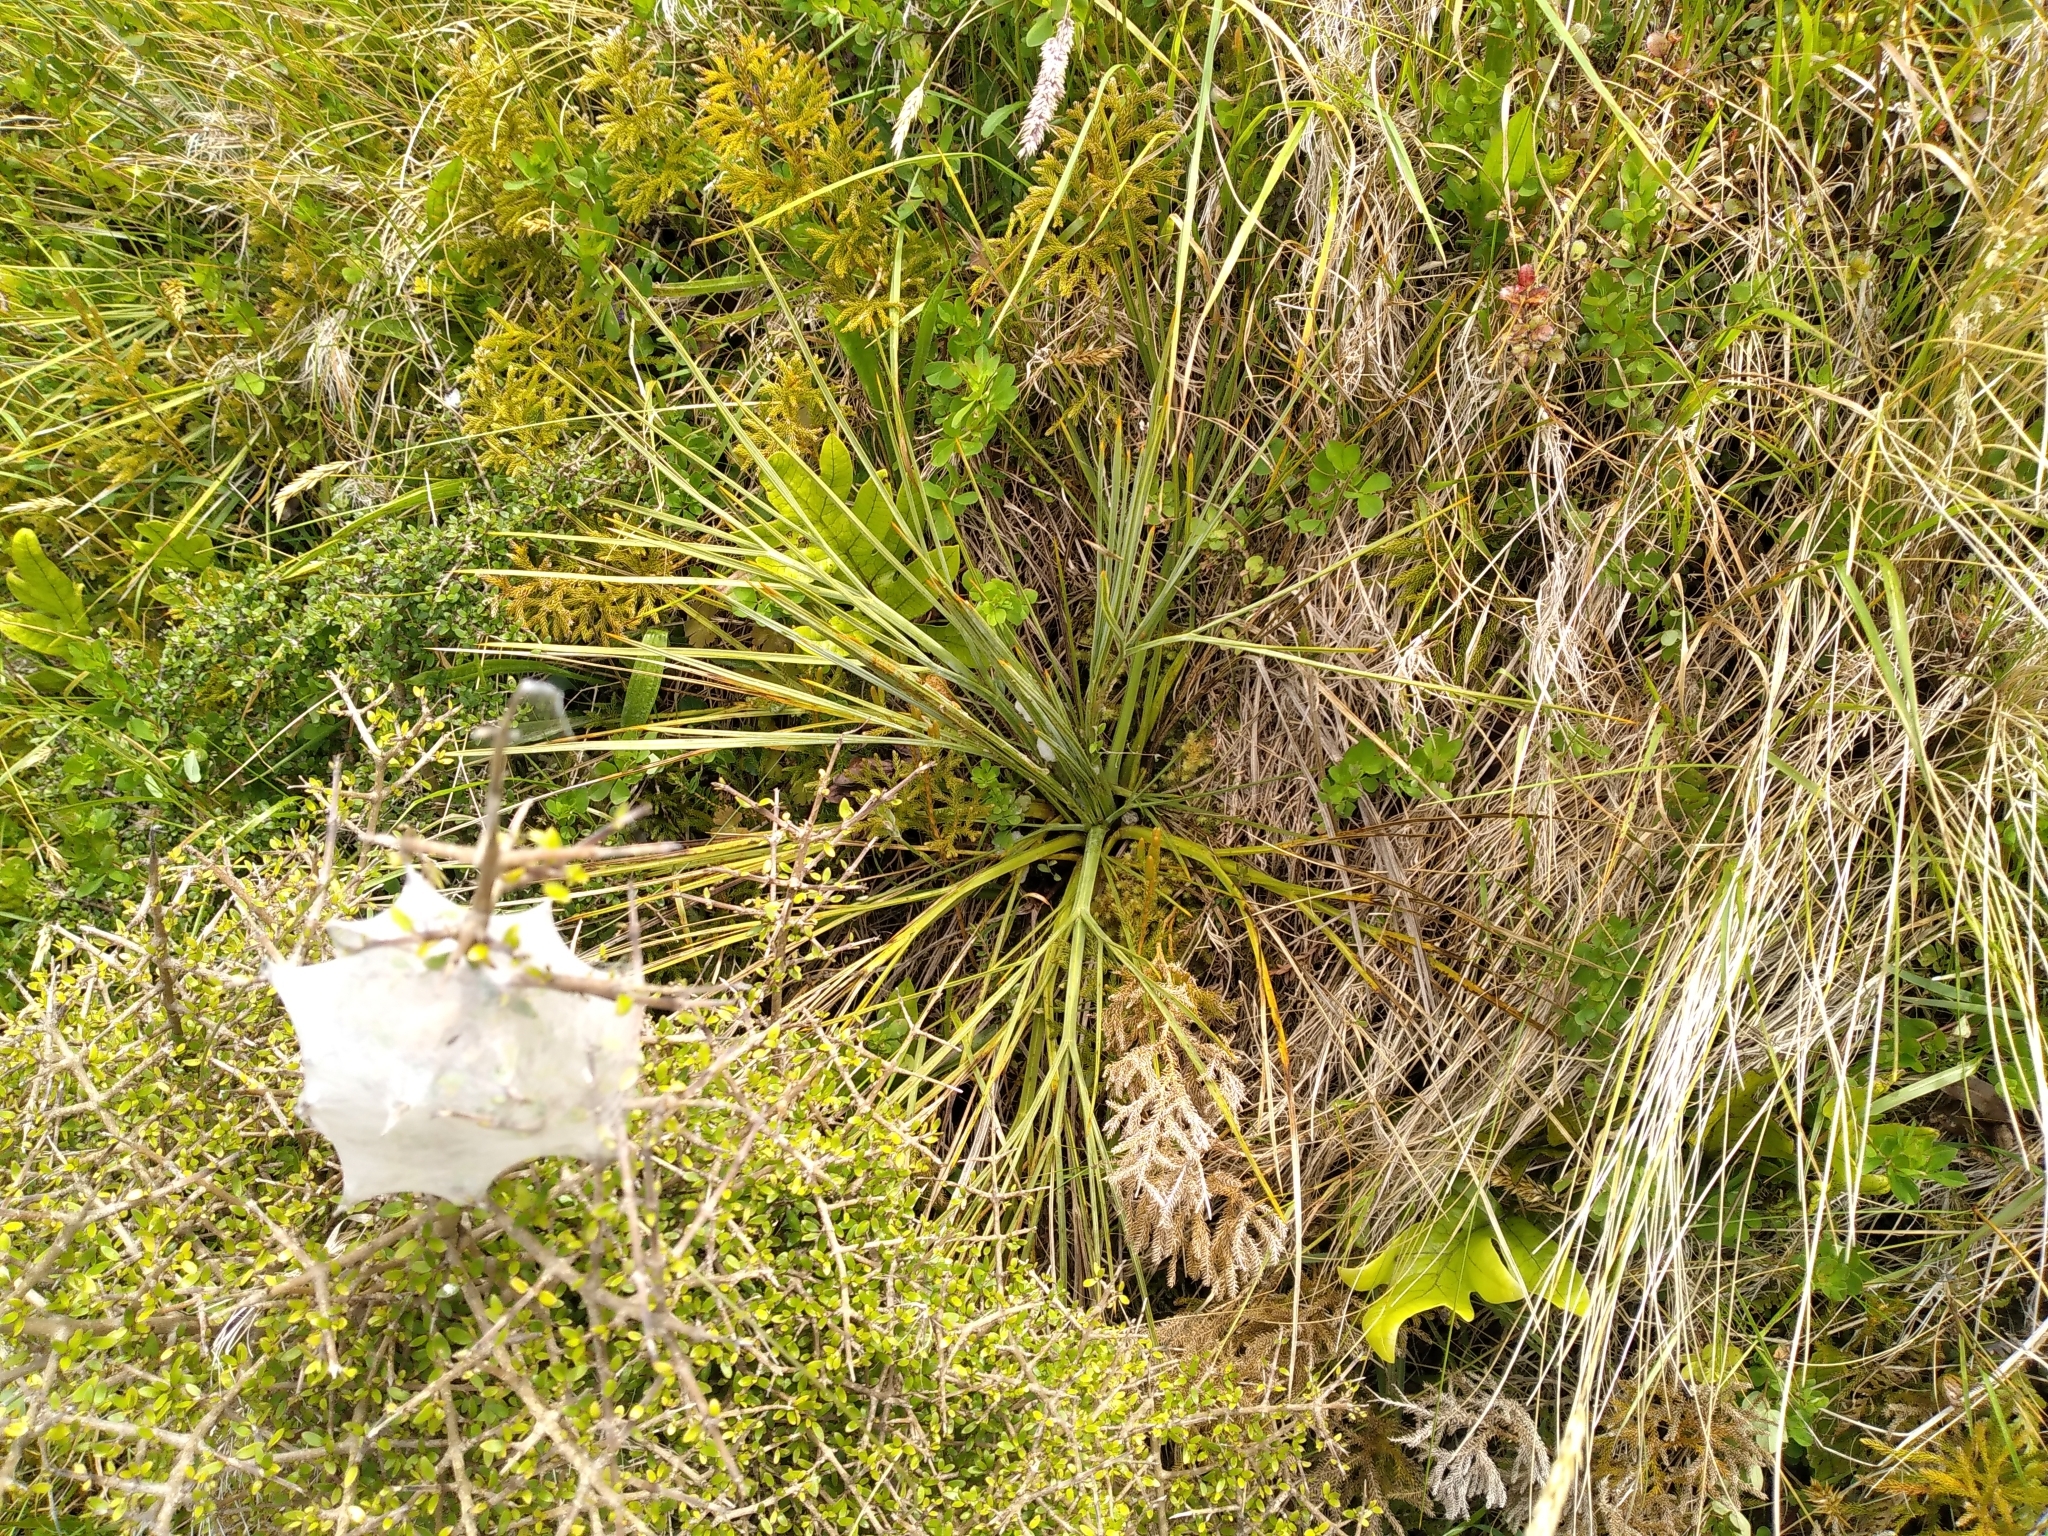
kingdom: Plantae
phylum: Tracheophyta
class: Magnoliopsida
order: Apiales
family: Apiaceae
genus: Aciphylla
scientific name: Aciphylla squarrosa
